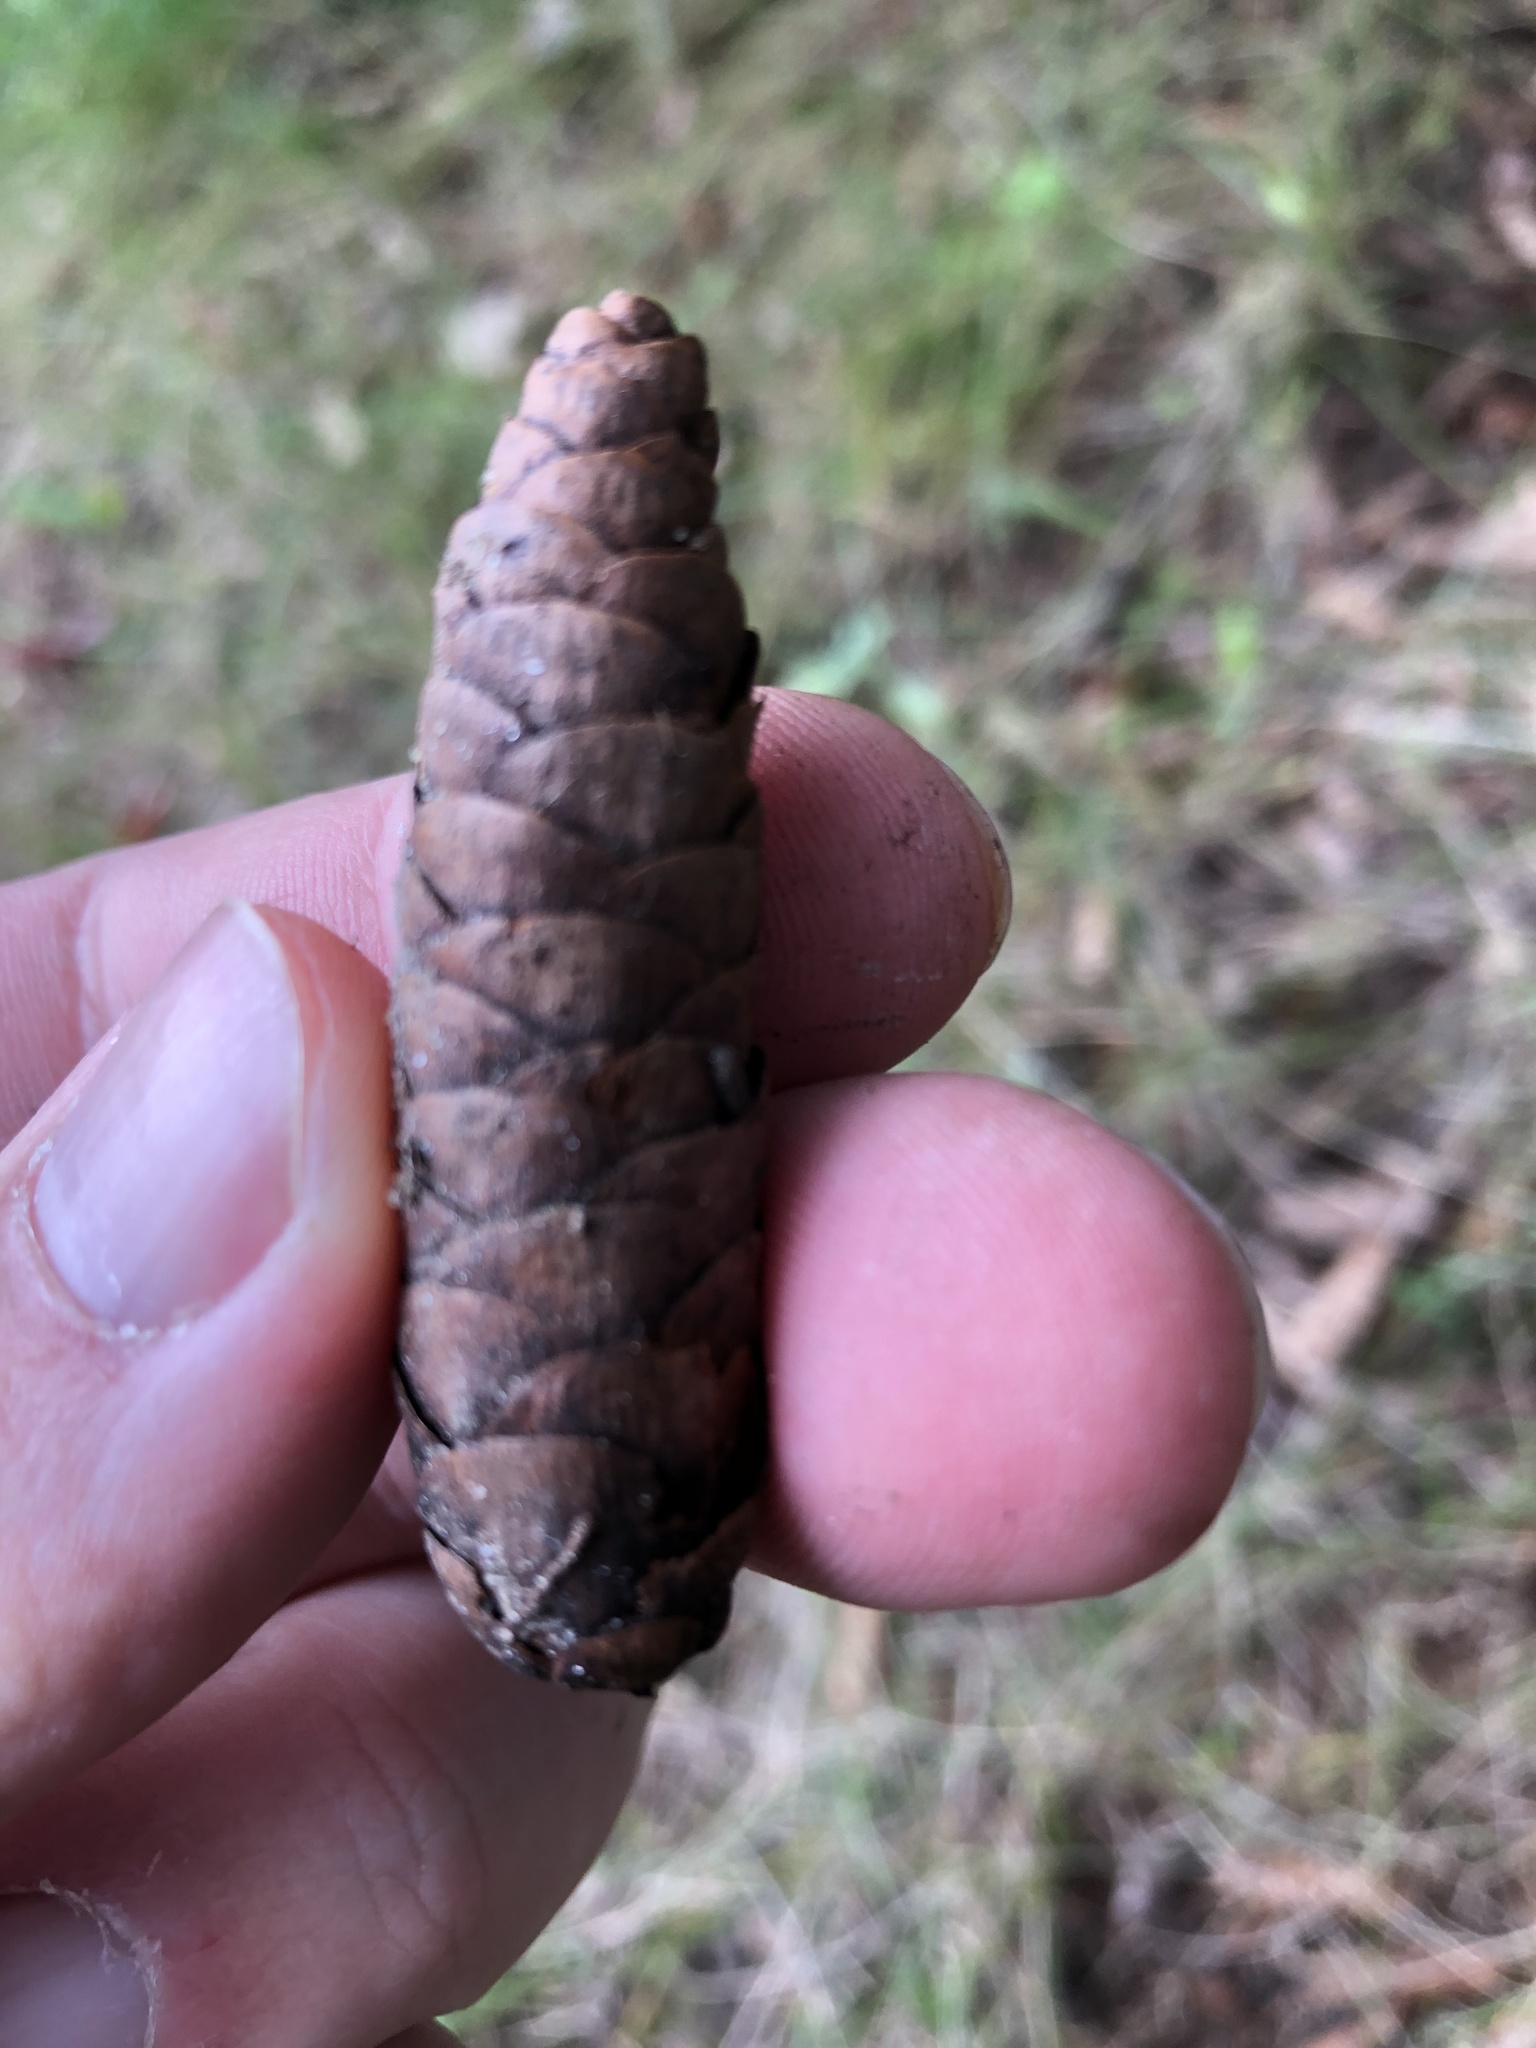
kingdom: Plantae
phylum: Tracheophyta
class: Pinopsida
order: Pinales
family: Pinaceae
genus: Picea
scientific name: Picea glauca
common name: White spruce
